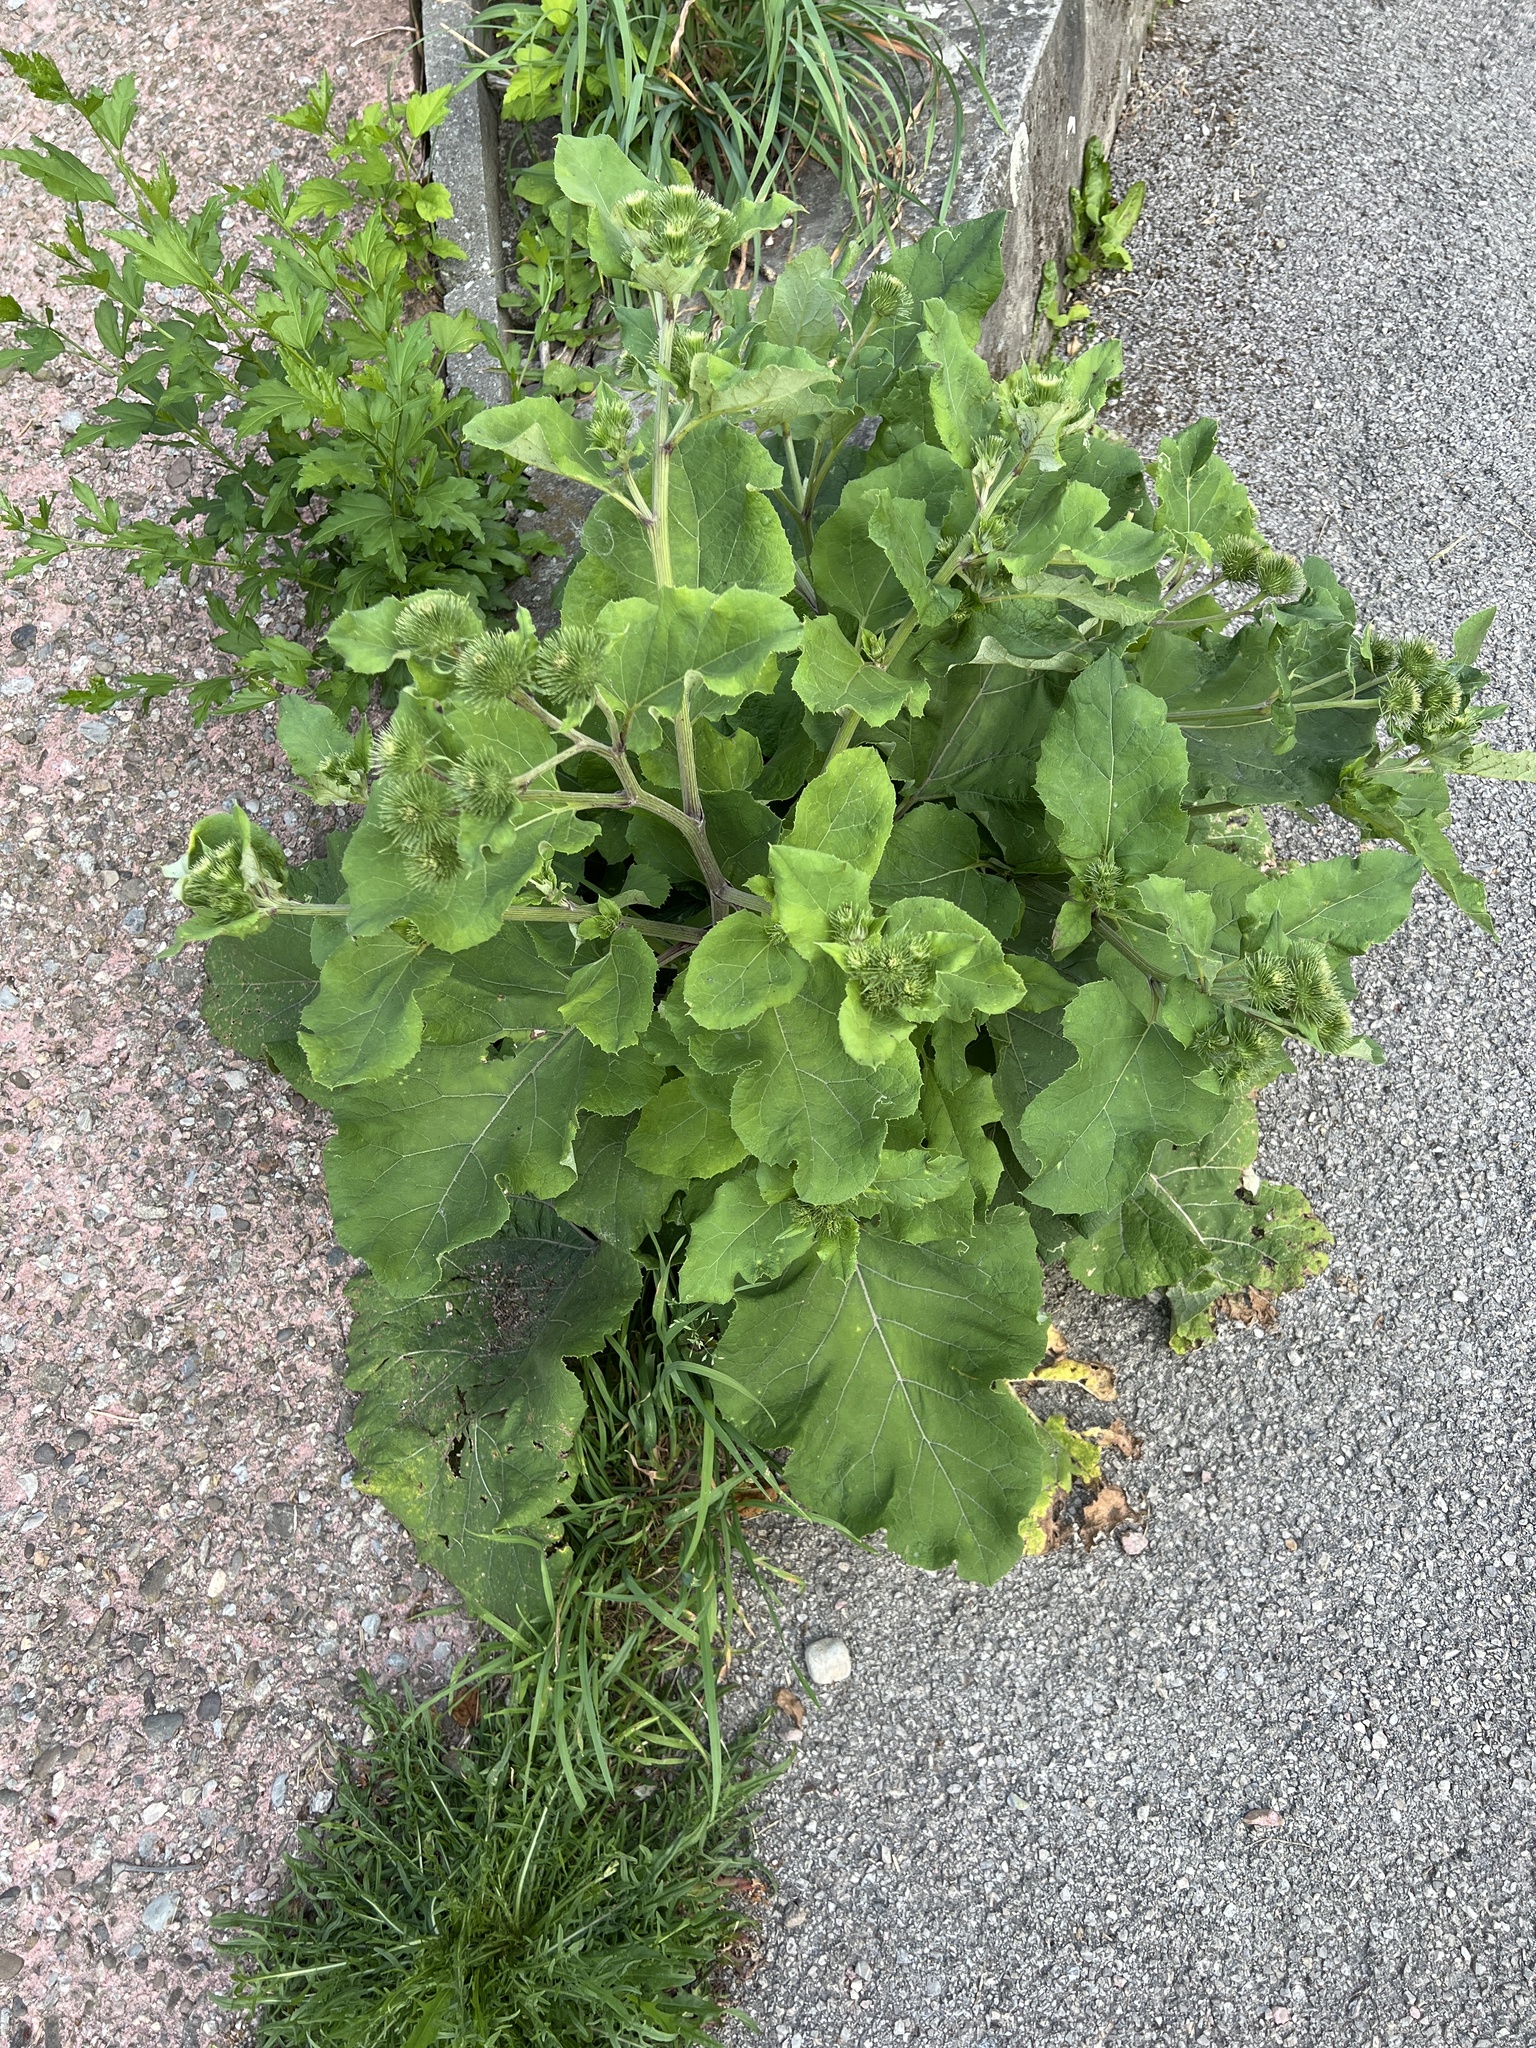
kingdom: Plantae
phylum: Tracheophyta
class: Magnoliopsida
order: Asterales
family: Asteraceae
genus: Arctium
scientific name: Arctium lappa
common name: Greater burdock
